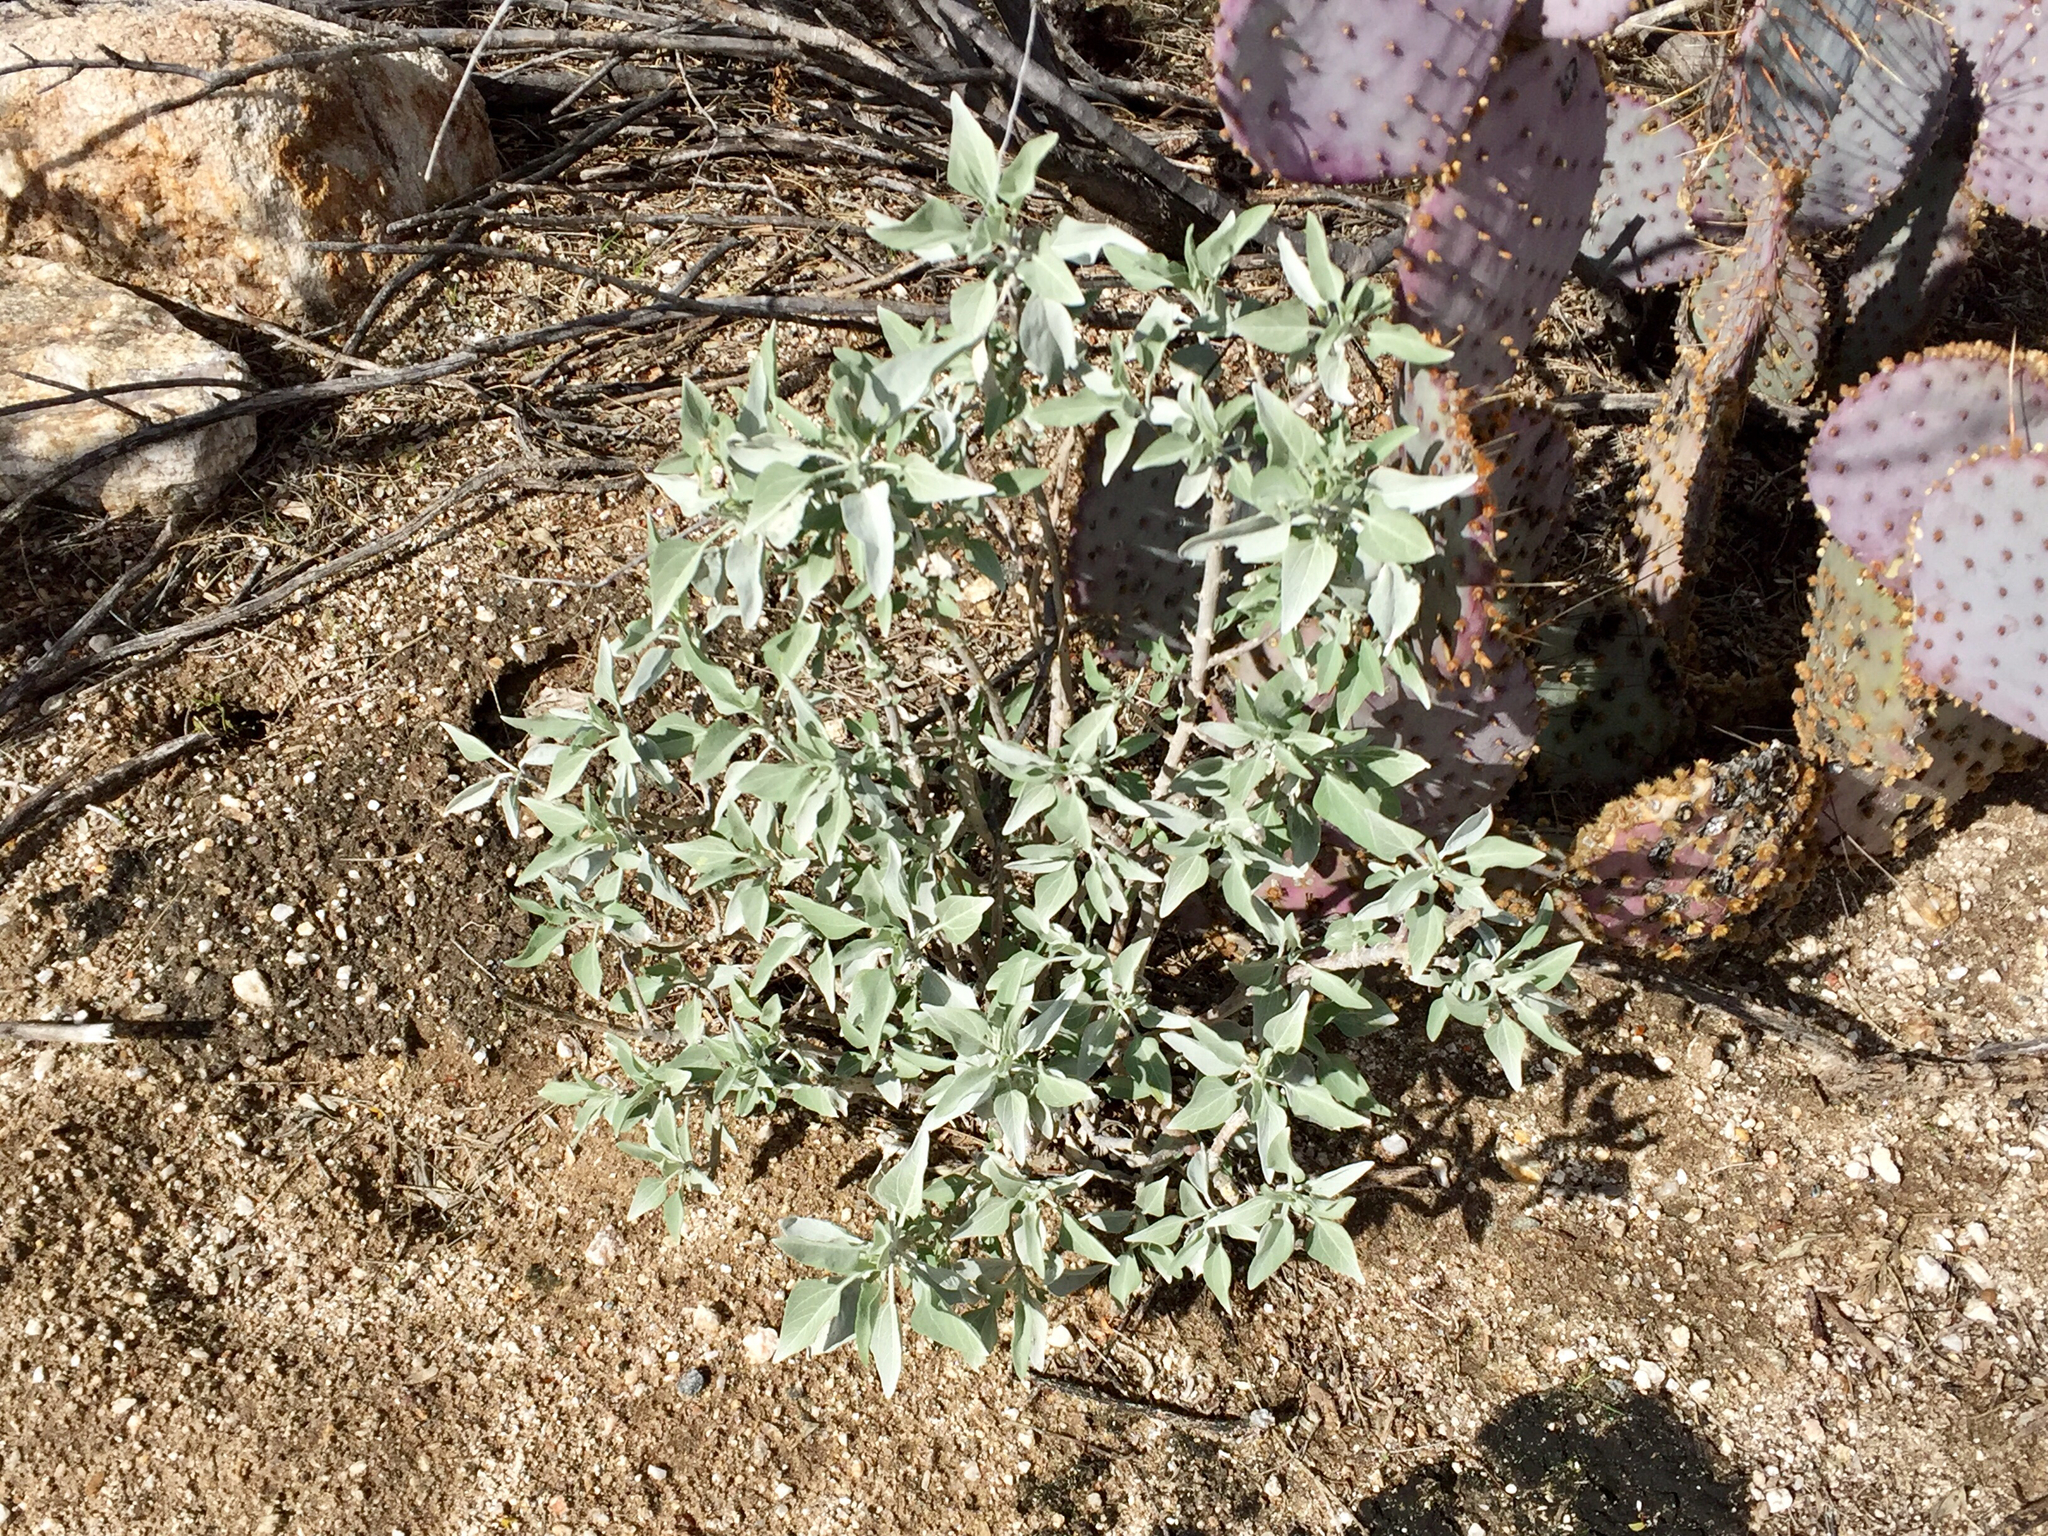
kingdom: Plantae
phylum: Tracheophyta
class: Magnoliopsida
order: Asterales
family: Asteraceae
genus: Encelia
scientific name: Encelia farinosa
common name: Brittlebush
